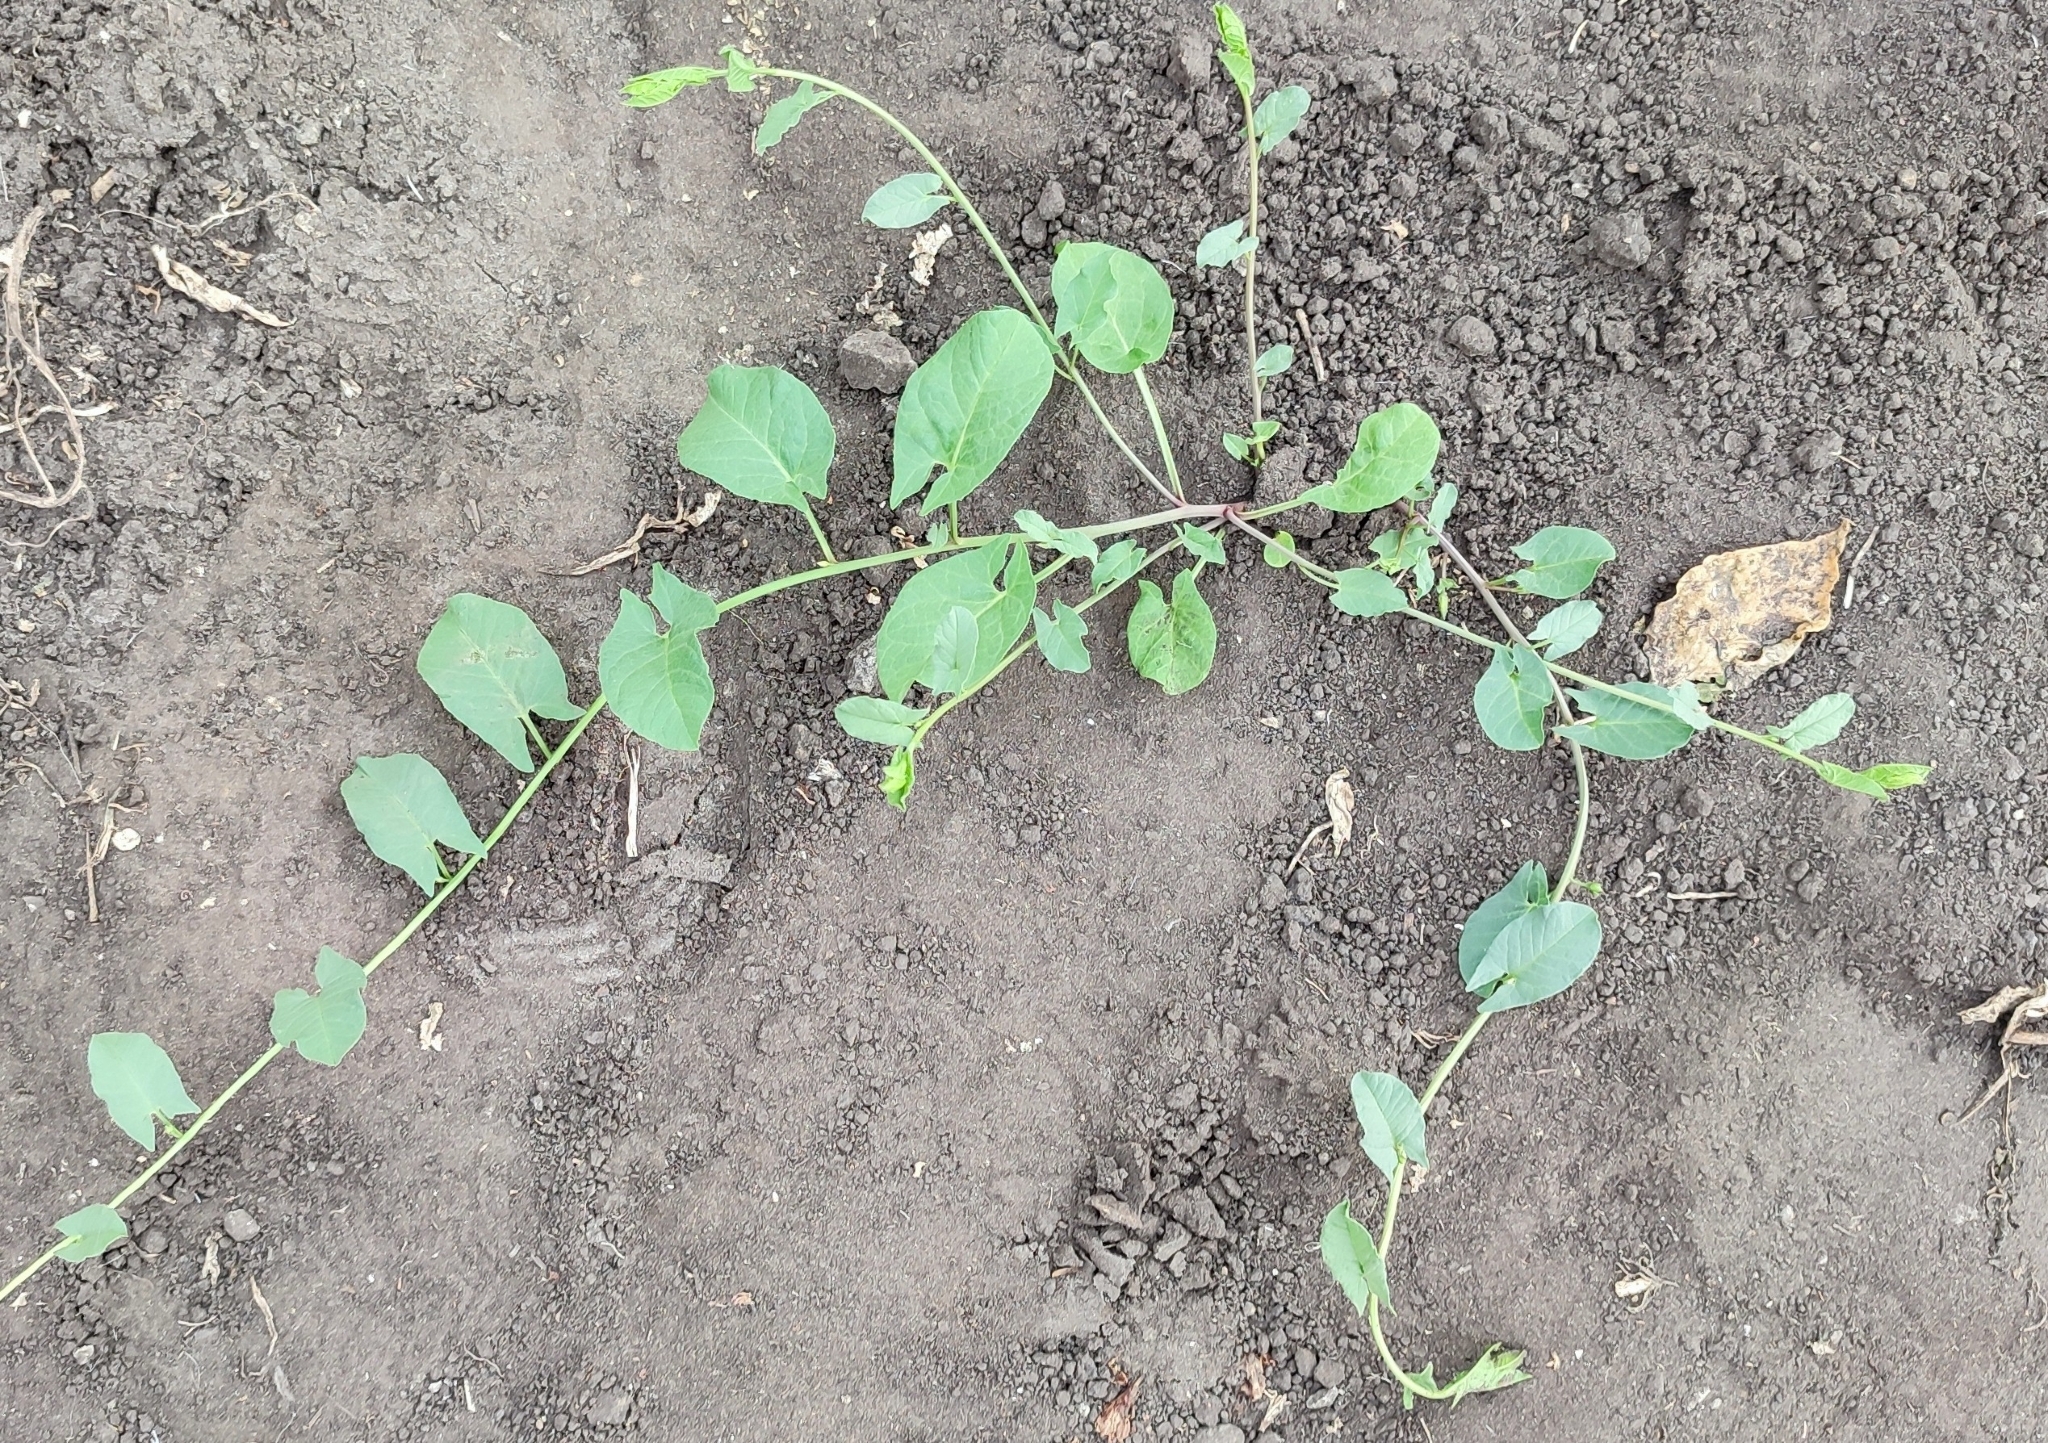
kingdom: Plantae
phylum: Tracheophyta
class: Magnoliopsida
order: Solanales
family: Convolvulaceae
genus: Convolvulus
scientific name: Convolvulus arvensis
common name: Field bindweed
